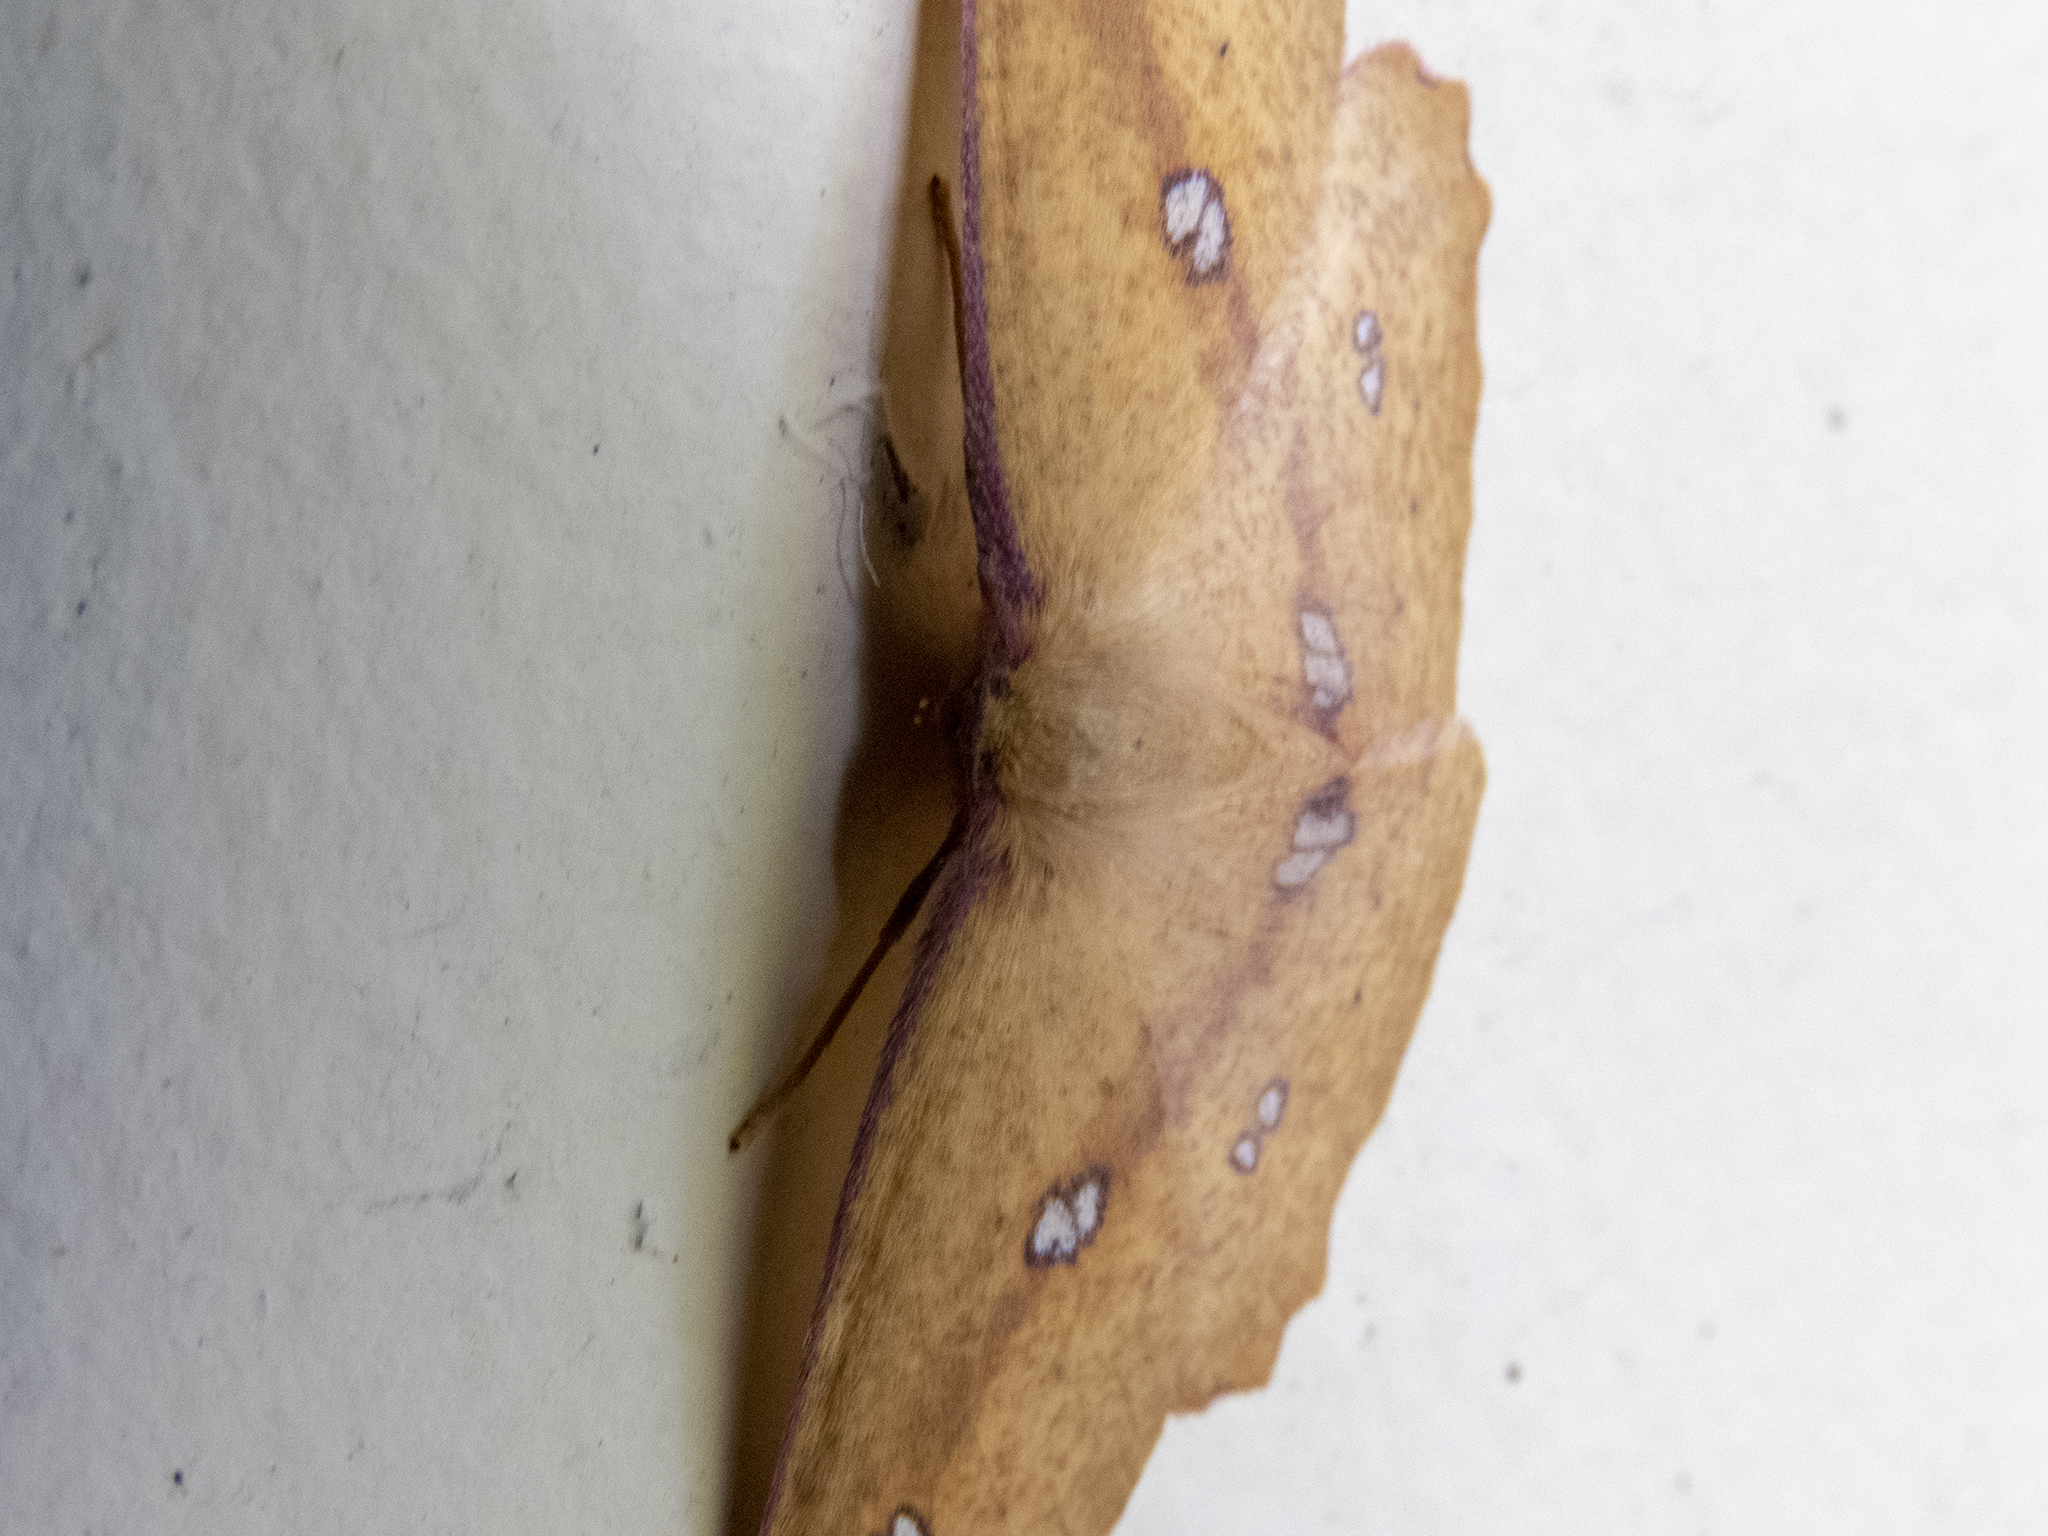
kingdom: Animalia
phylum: Arthropoda
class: Insecta
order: Lepidoptera
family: Geometridae
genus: Xyridacma
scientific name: Xyridacma alectoraria
